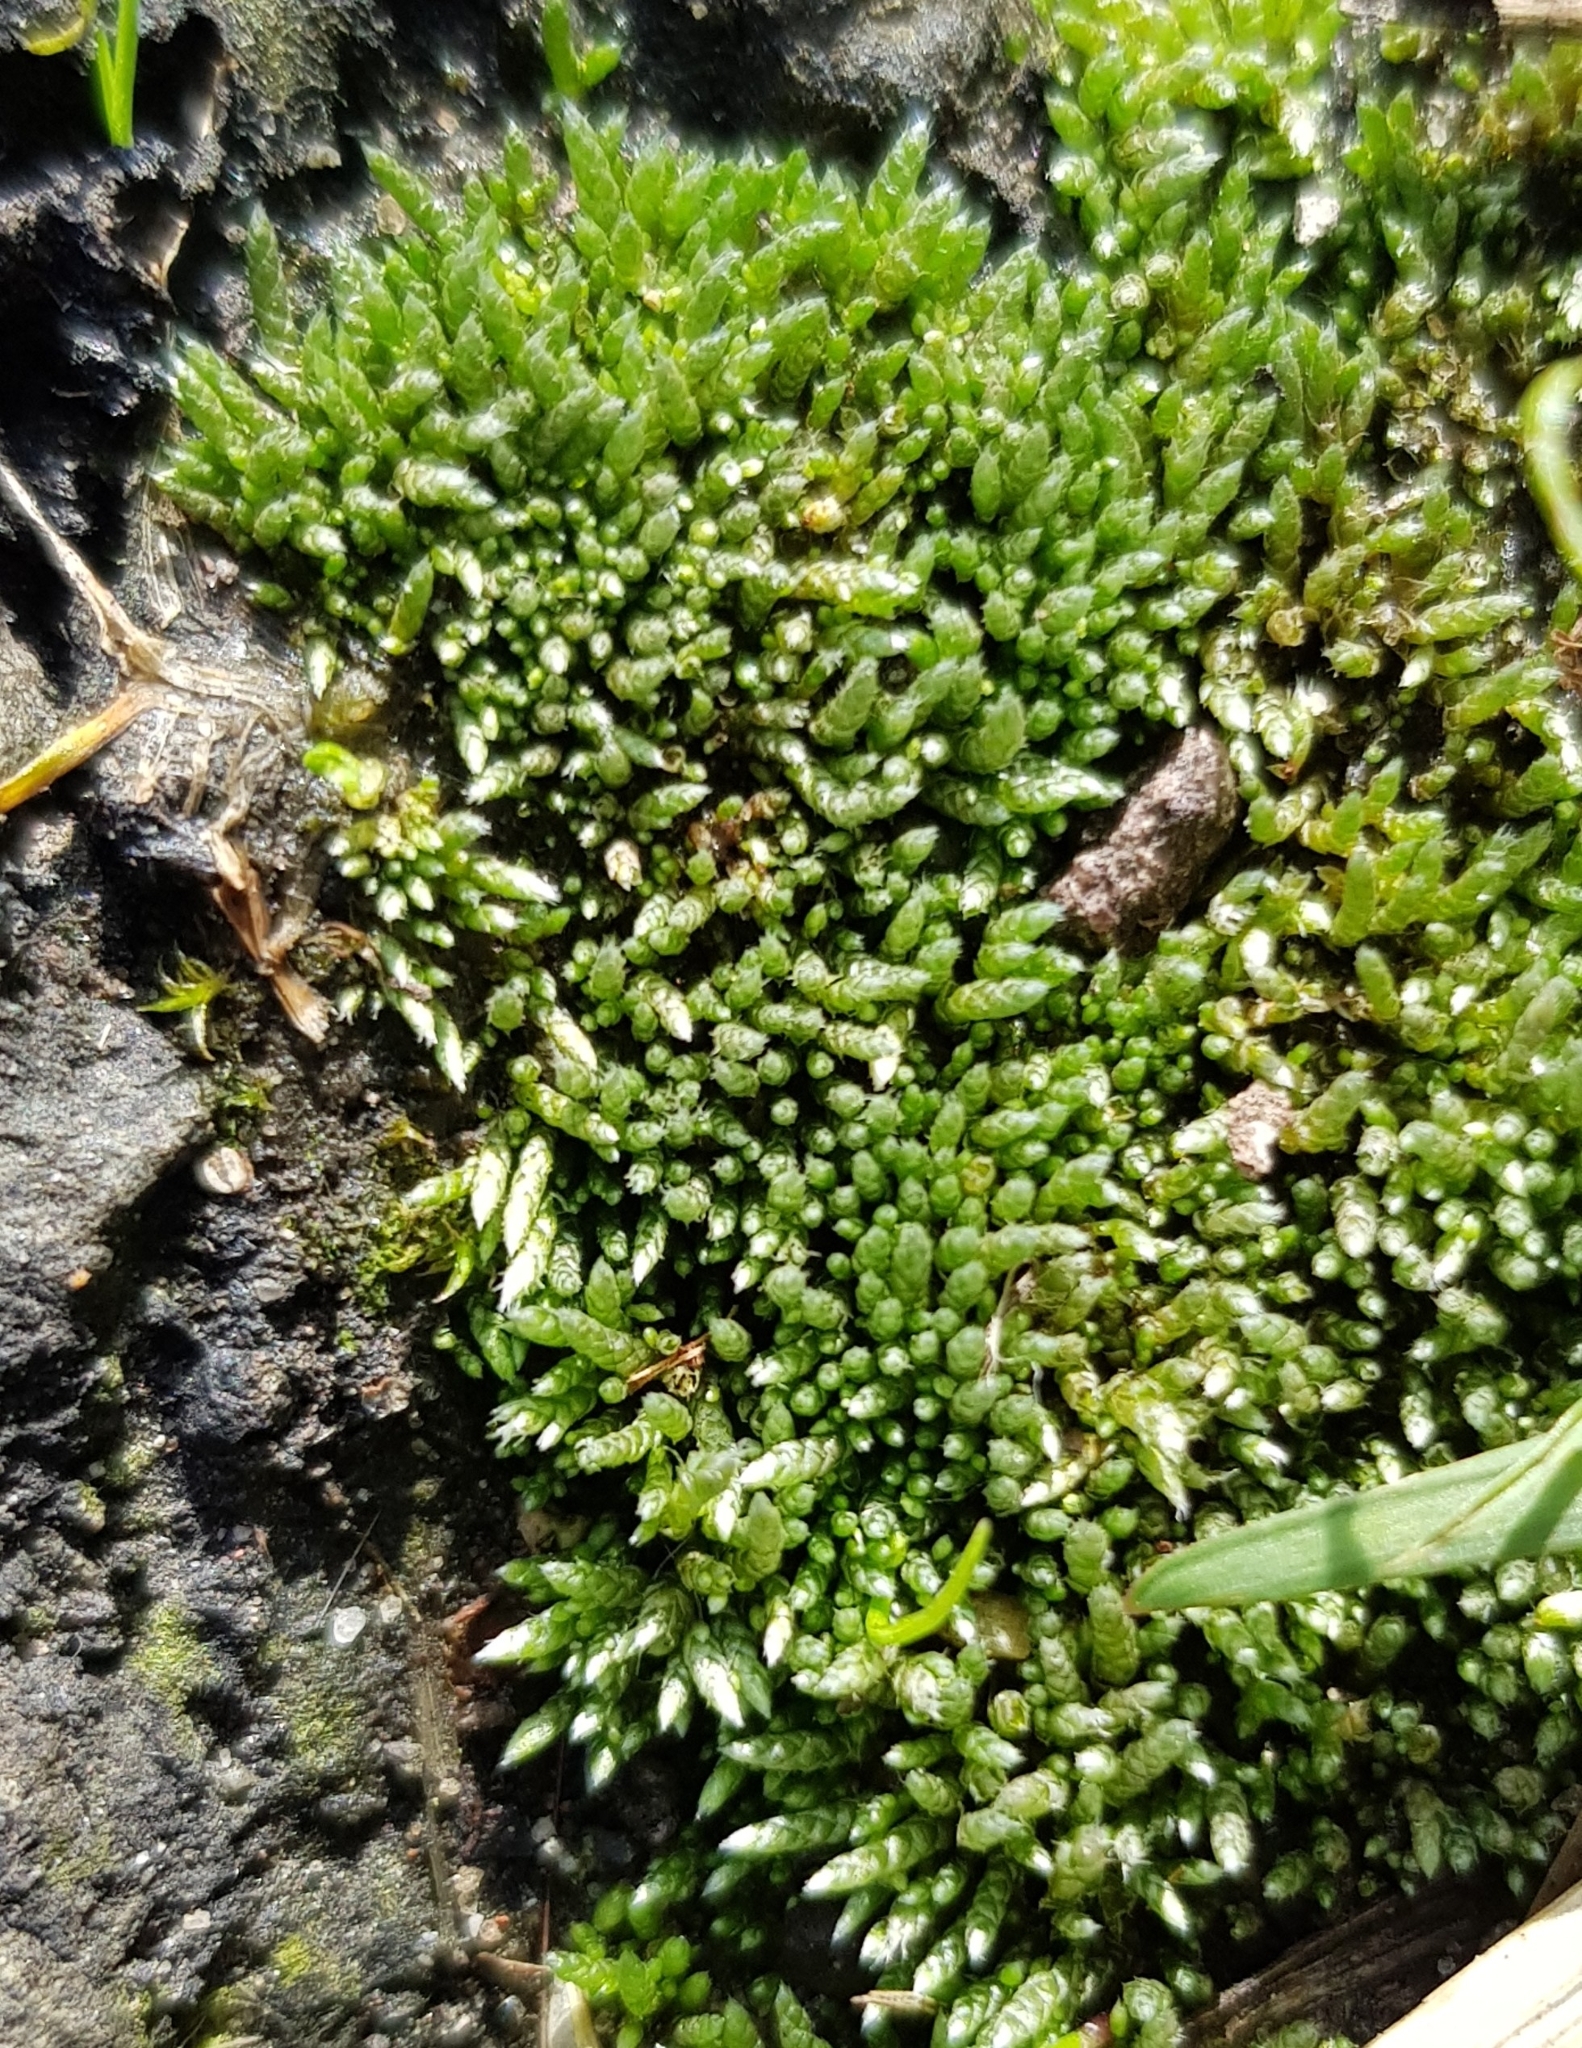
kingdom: Plantae
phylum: Bryophyta
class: Bryopsida
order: Bryales
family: Bryaceae
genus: Bryum
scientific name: Bryum argenteum
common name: Silver-moss
